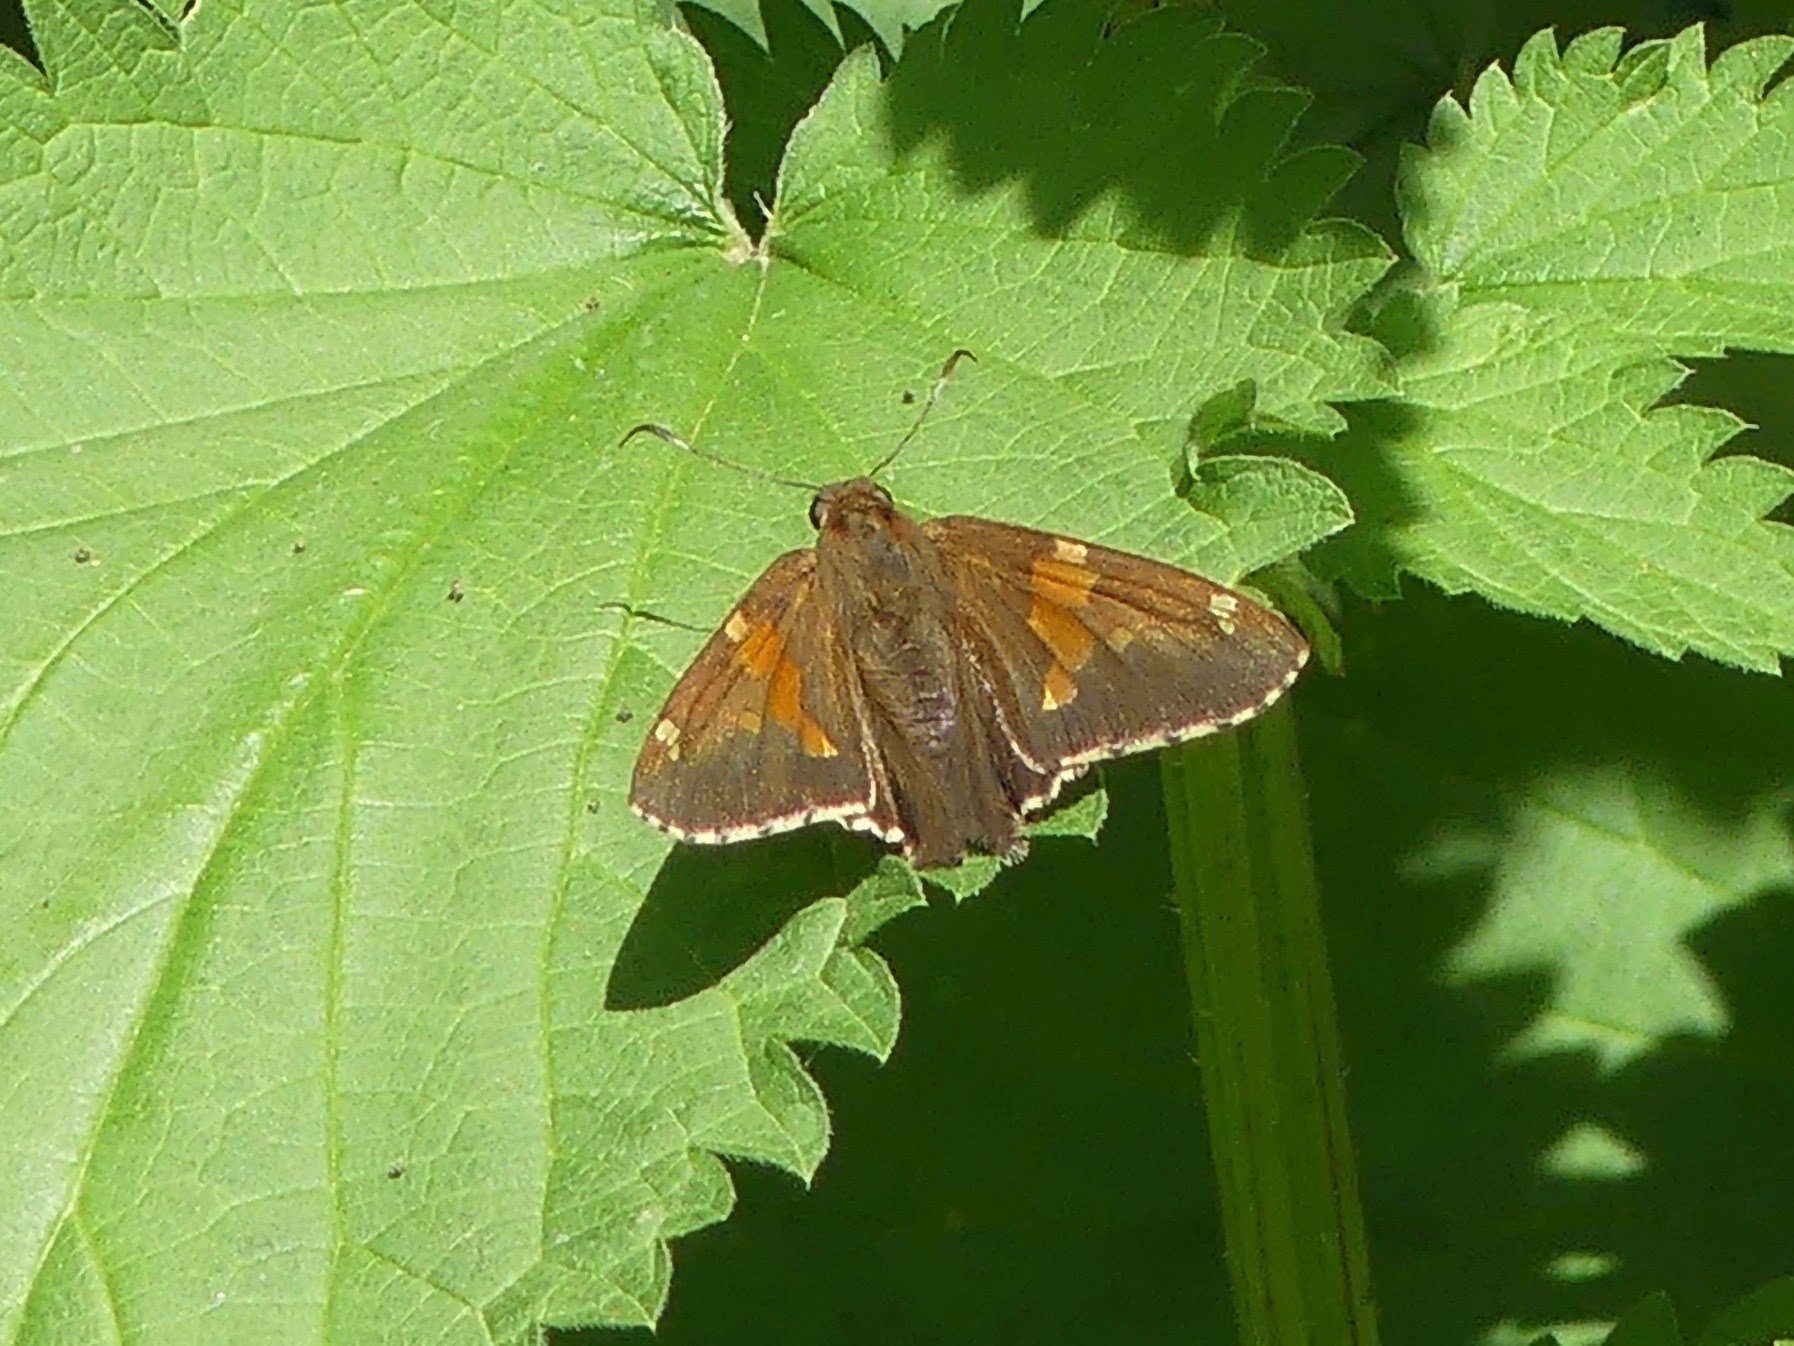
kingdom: Animalia
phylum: Arthropoda
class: Insecta
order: Lepidoptera
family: Hesperiidae
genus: Epargyreus
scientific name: Epargyreus clarus
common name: Silver-spotted skipper
